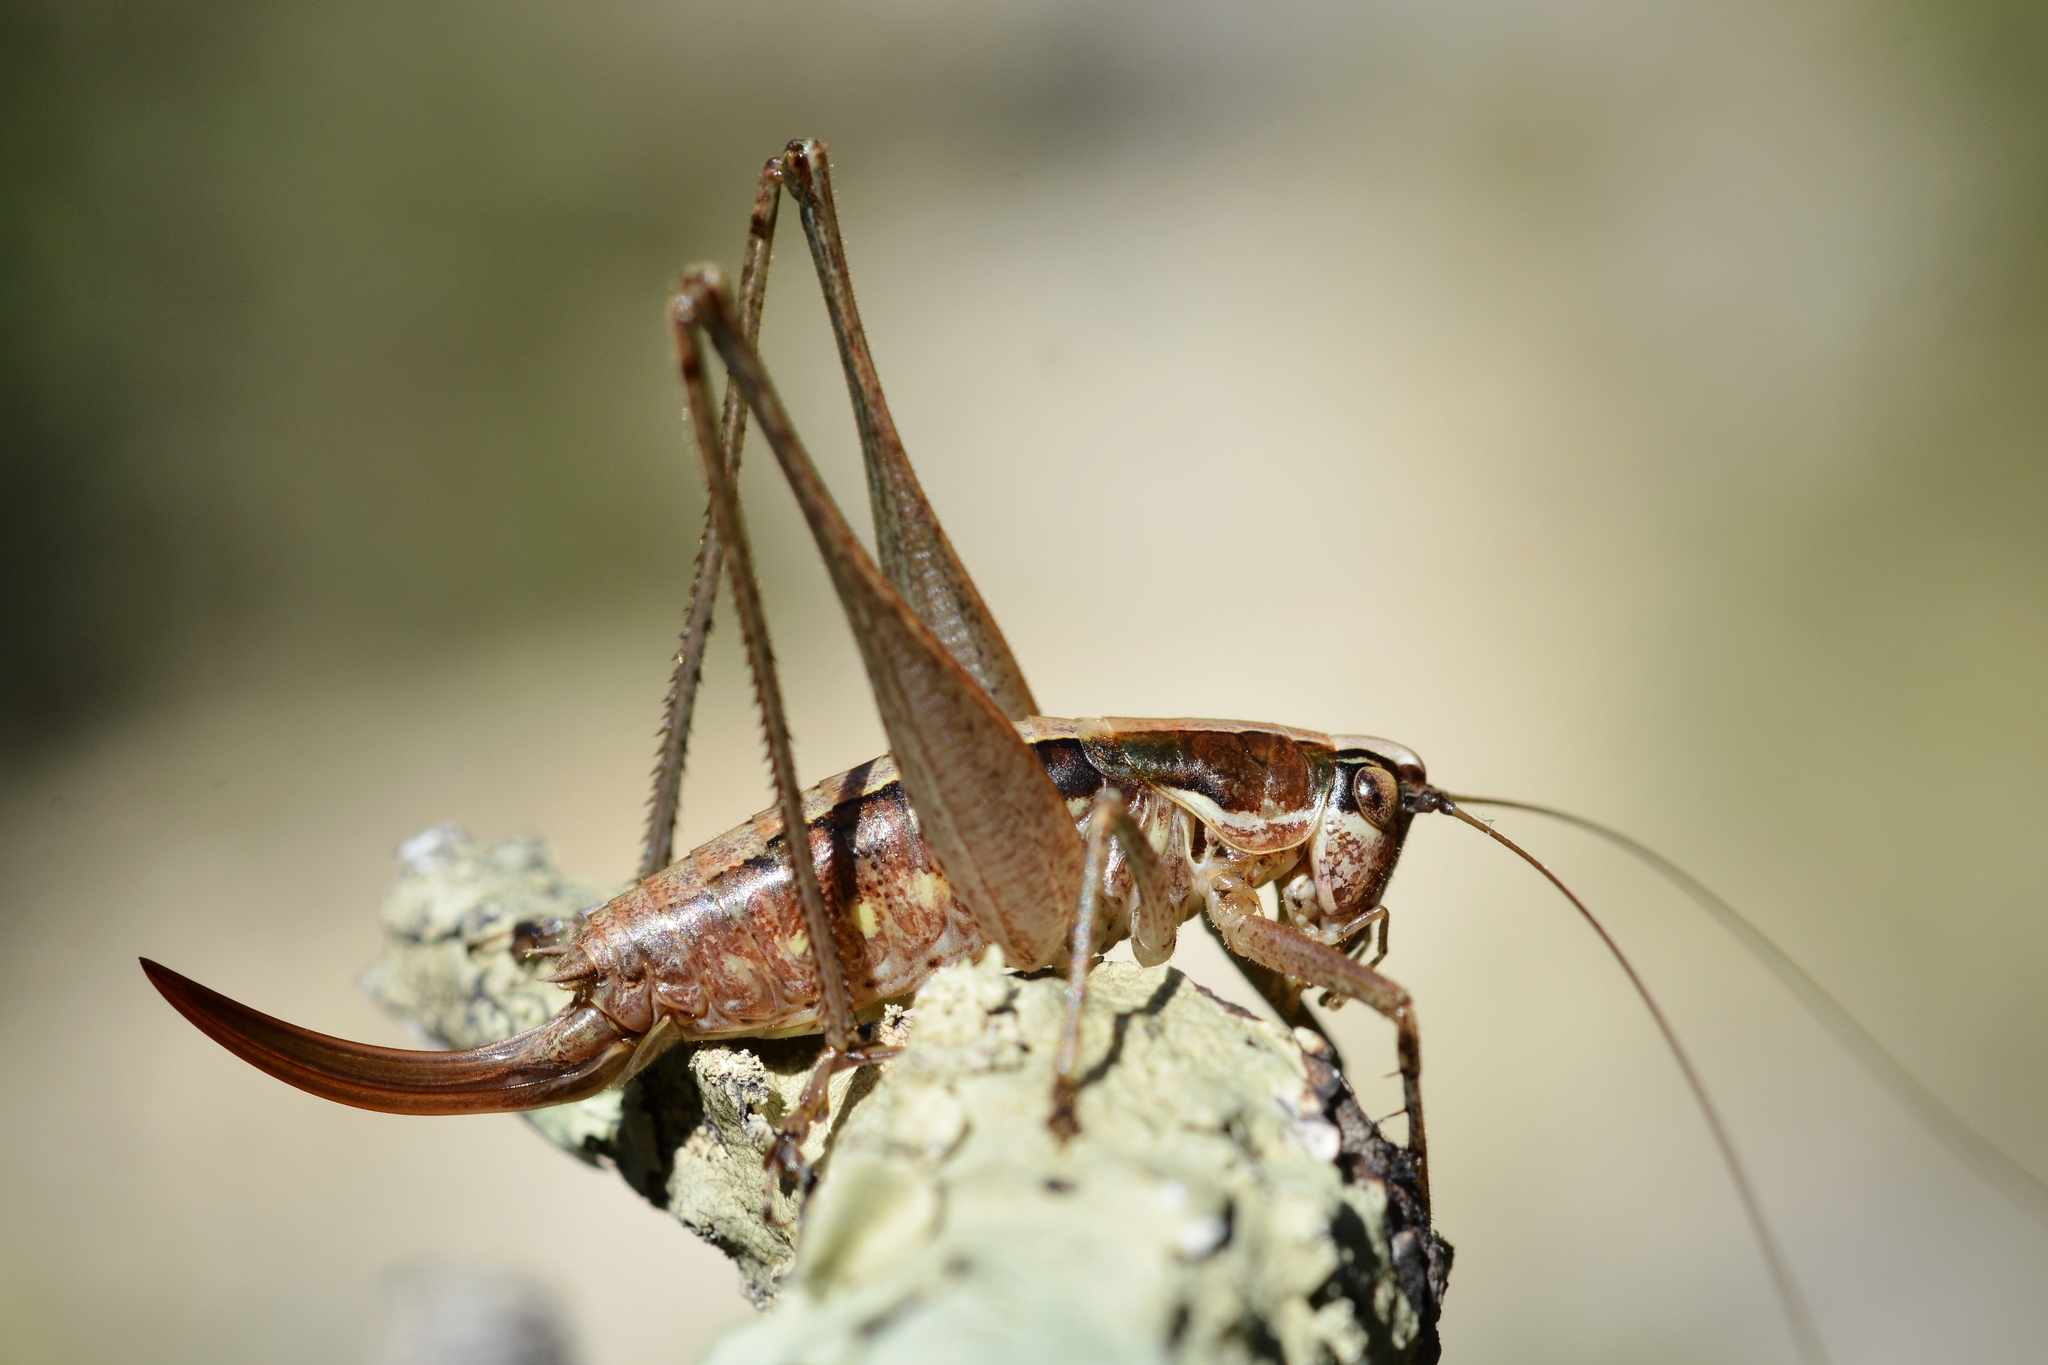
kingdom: Animalia
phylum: Arthropoda
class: Insecta
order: Orthoptera
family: Tettigoniidae
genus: Yersinella
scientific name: Yersinella raymondii
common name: Raymond's bush-cricket
